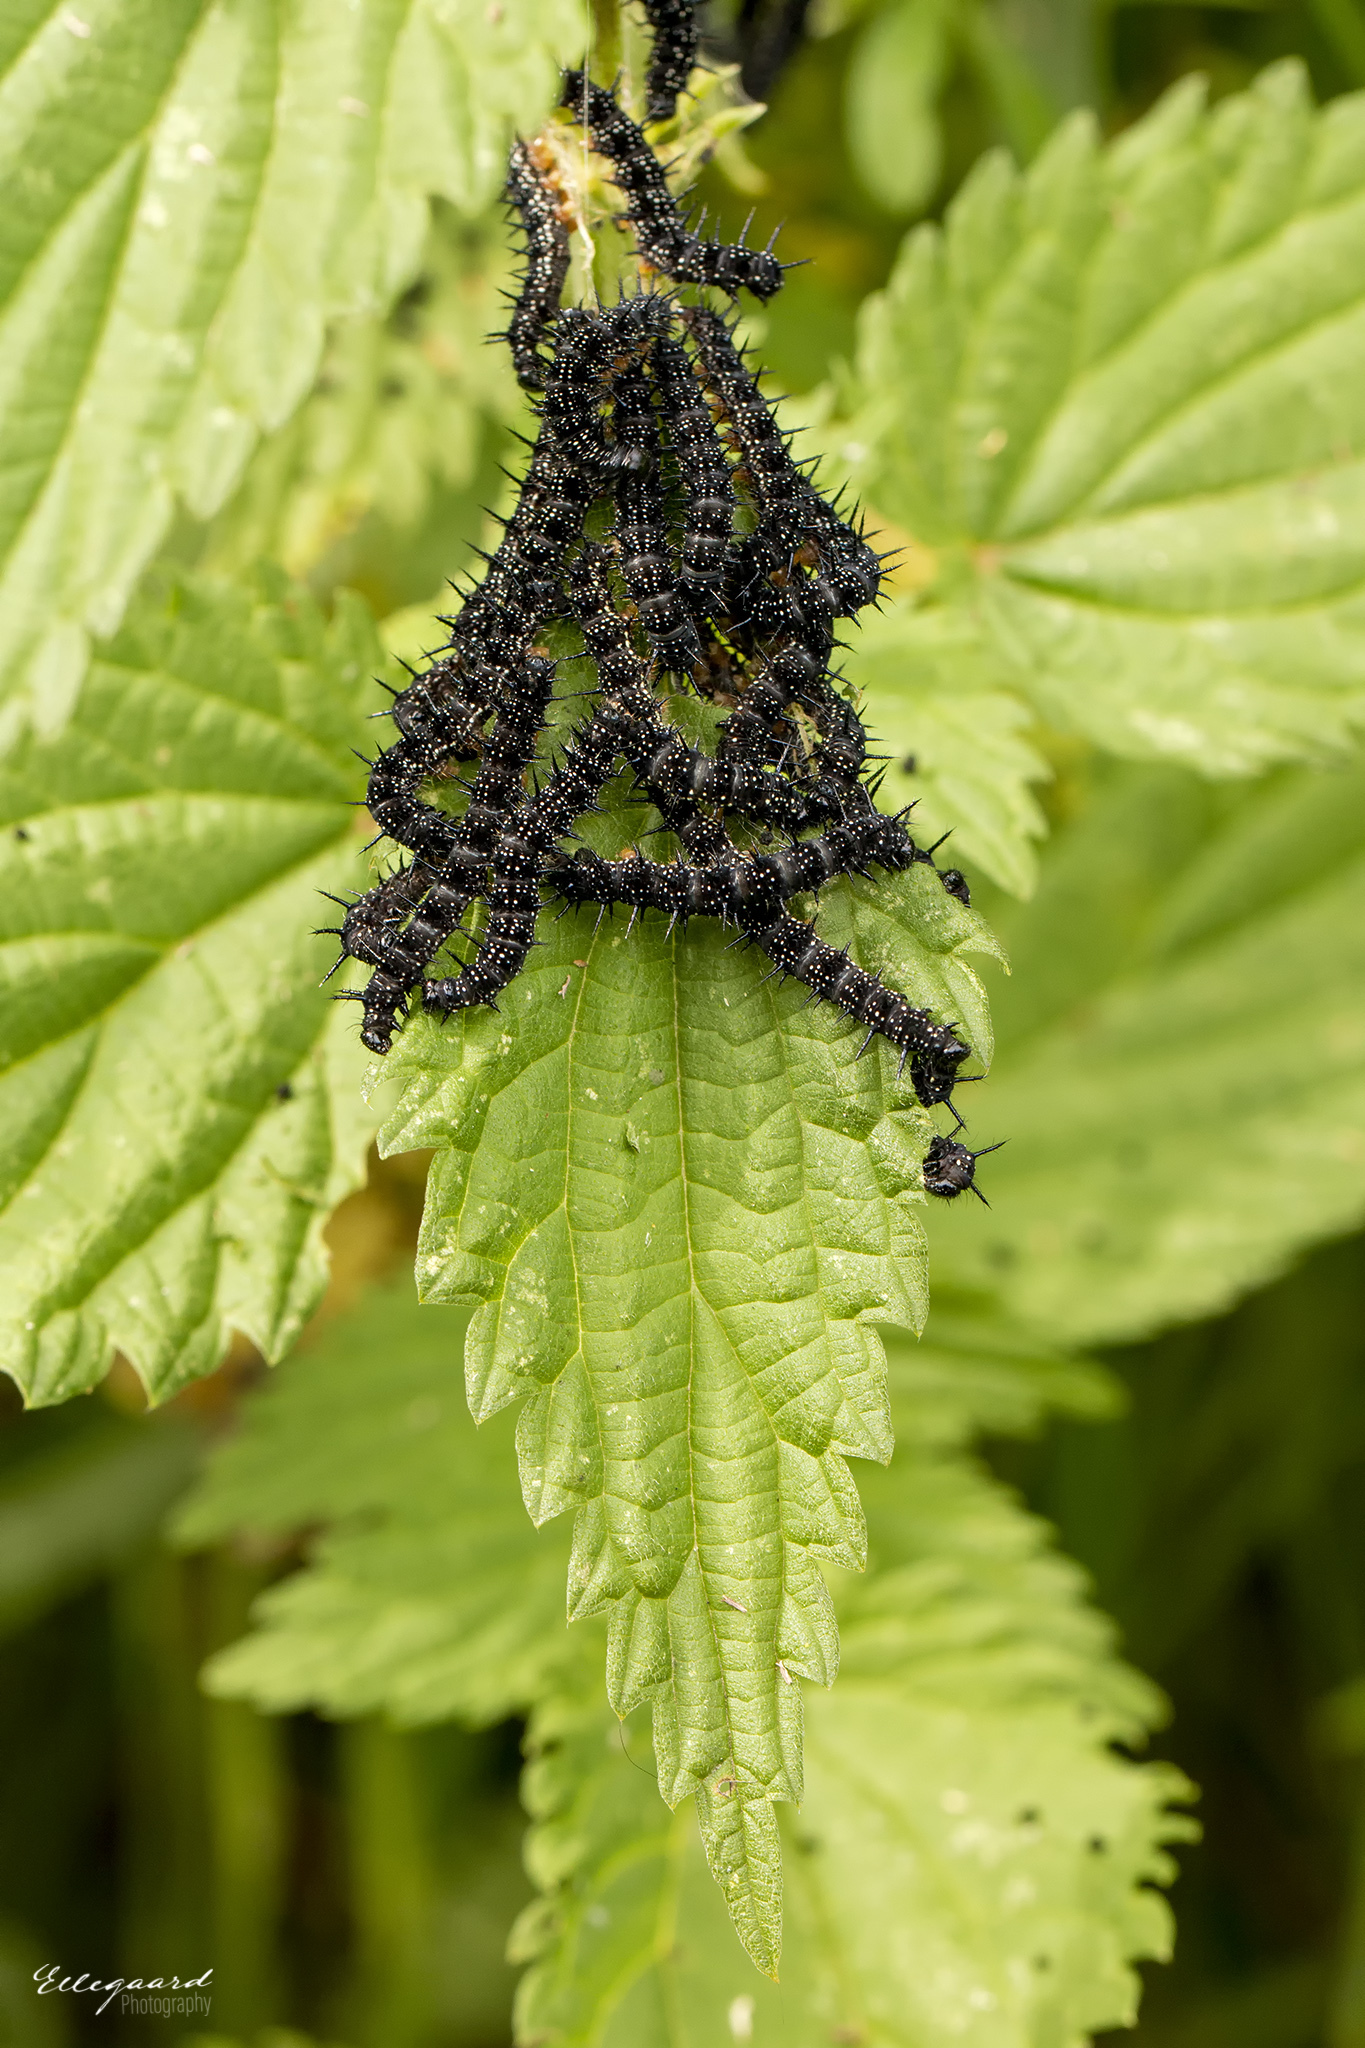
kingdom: Animalia
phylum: Arthropoda
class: Insecta
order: Lepidoptera
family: Nymphalidae
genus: Aglais
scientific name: Aglais io
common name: Peacock
